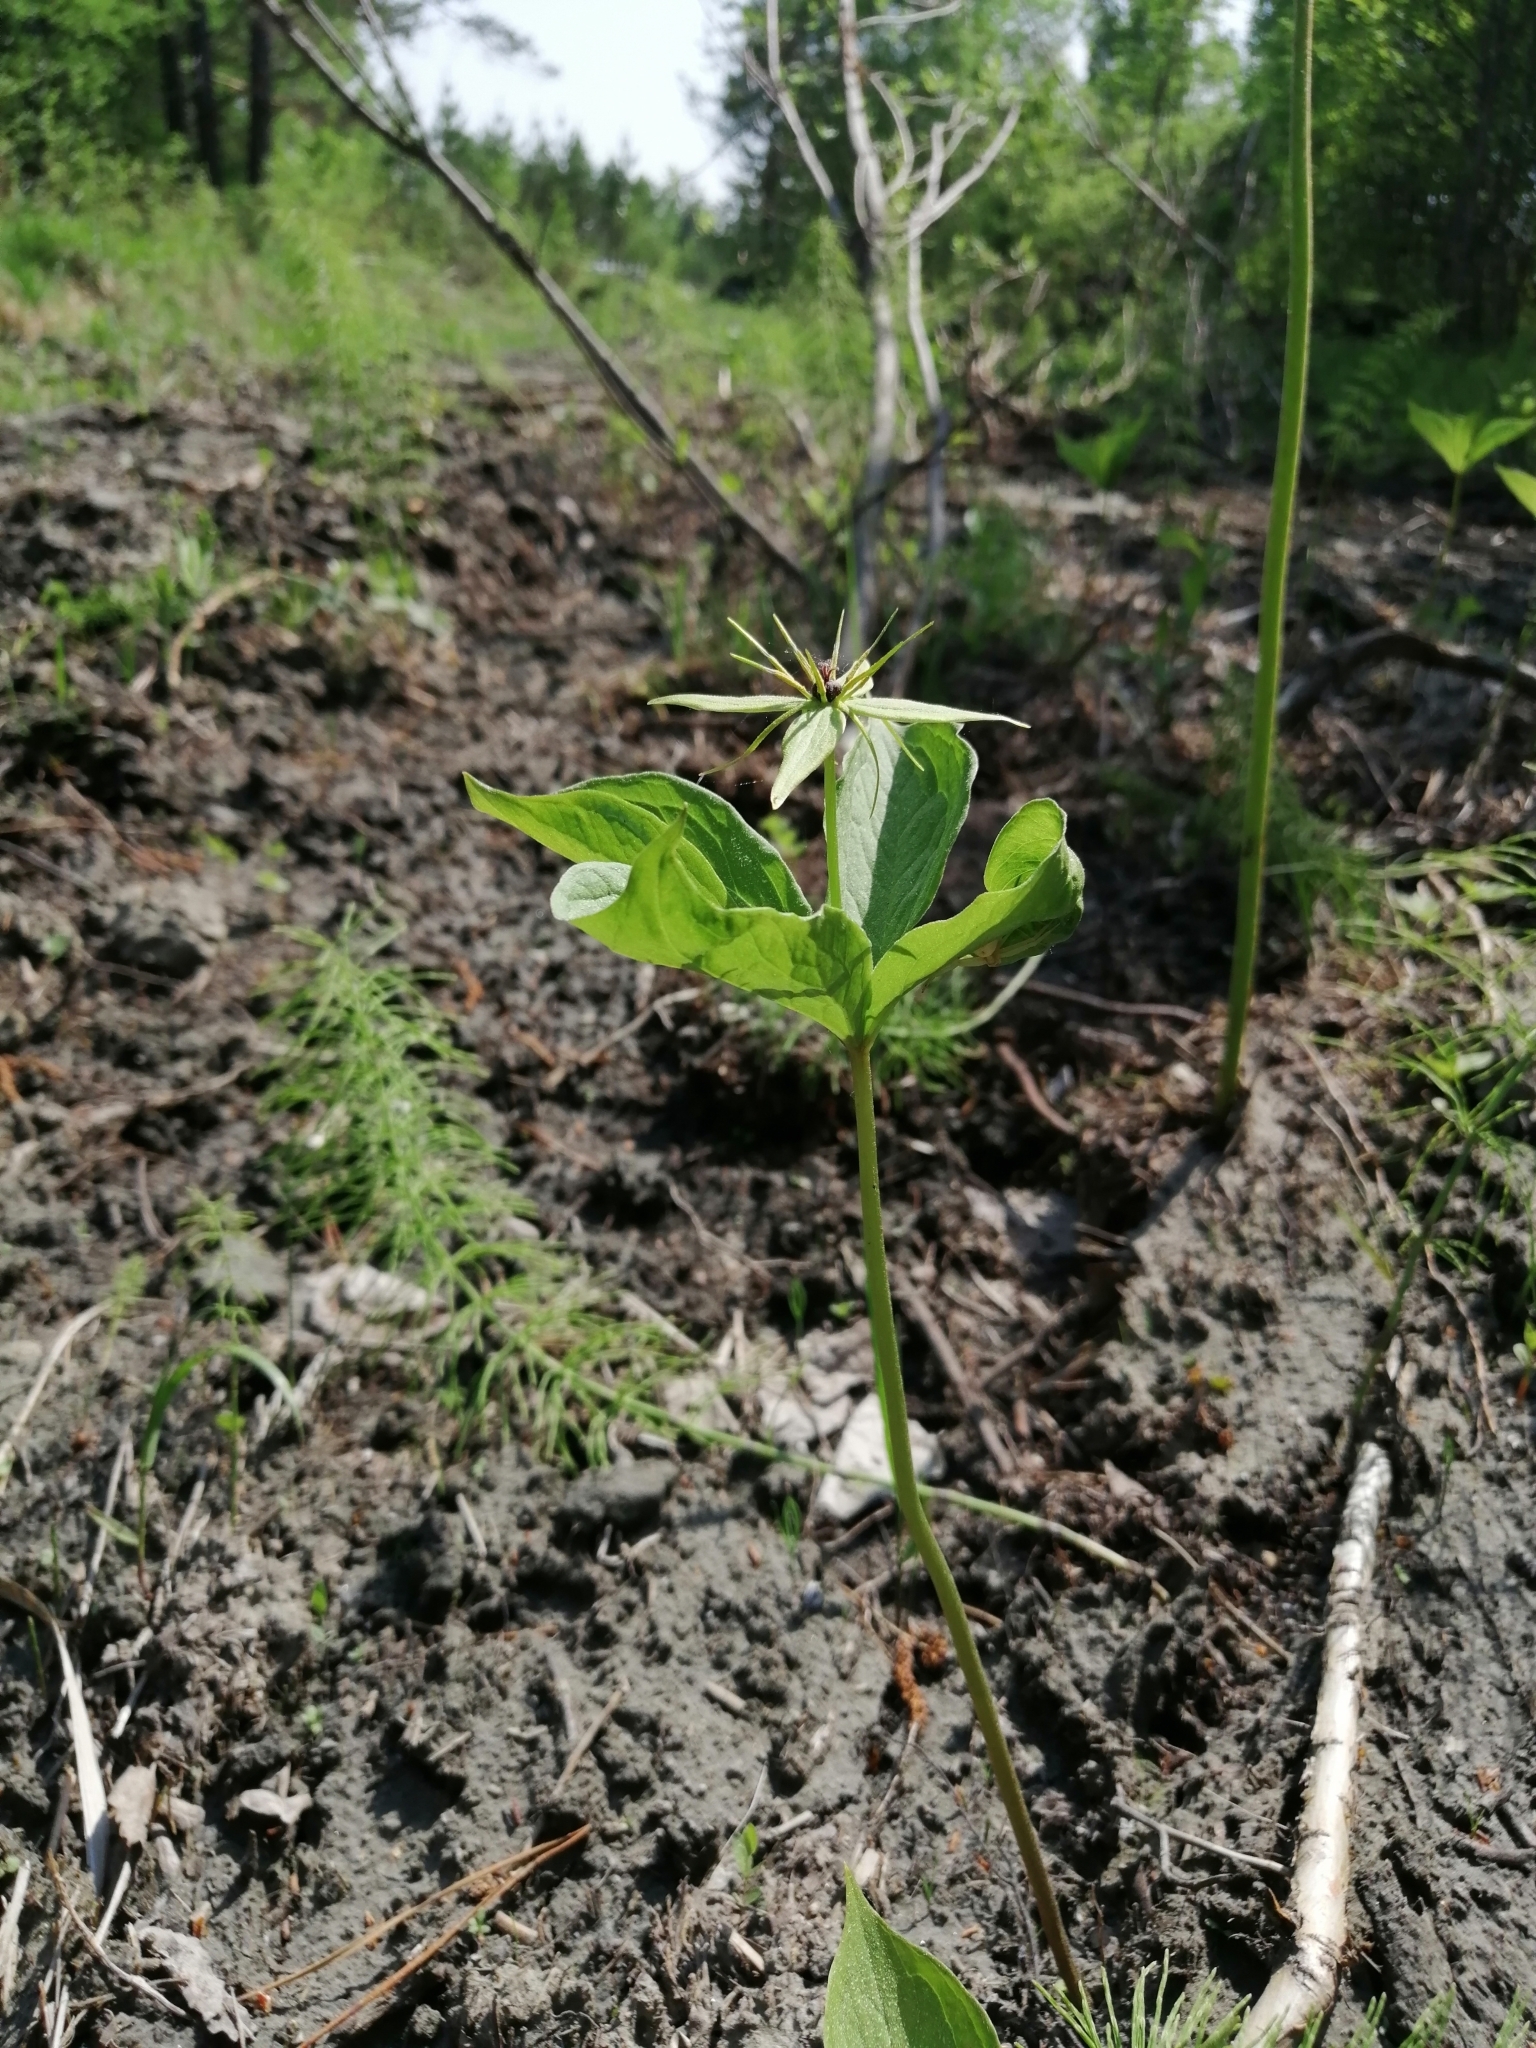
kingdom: Plantae
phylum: Tracheophyta
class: Liliopsida
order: Liliales
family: Melanthiaceae
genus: Paris
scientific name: Paris verticillata
